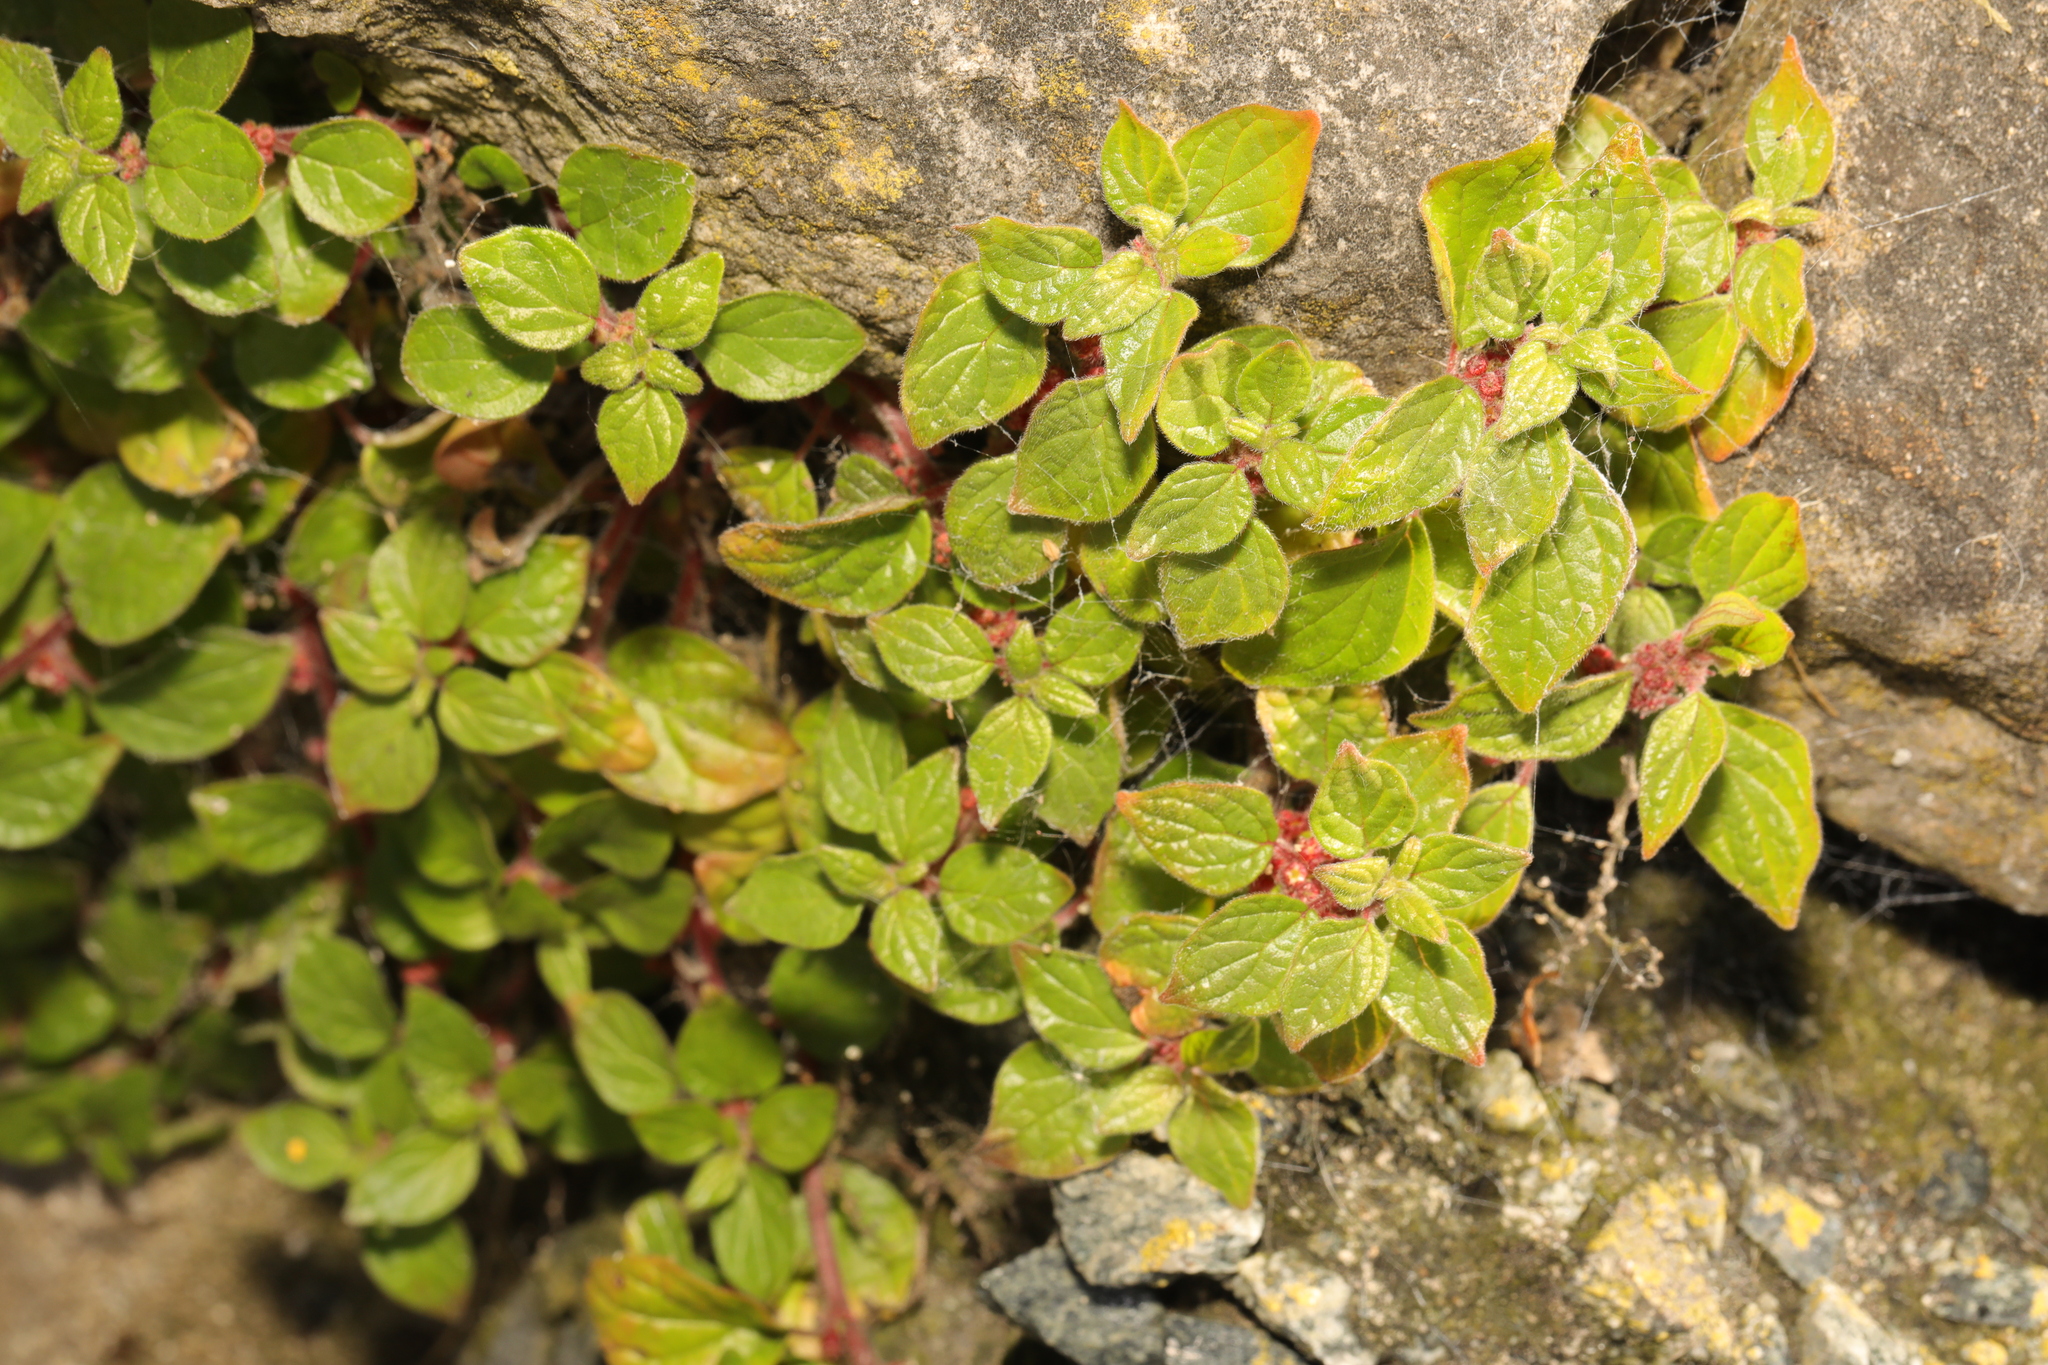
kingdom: Plantae
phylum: Tracheophyta
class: Magnoliopsida
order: Rosales
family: Urticaceae
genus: Parietaria
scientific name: Parietaria judaica
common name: Pellitory-of-the-wall
